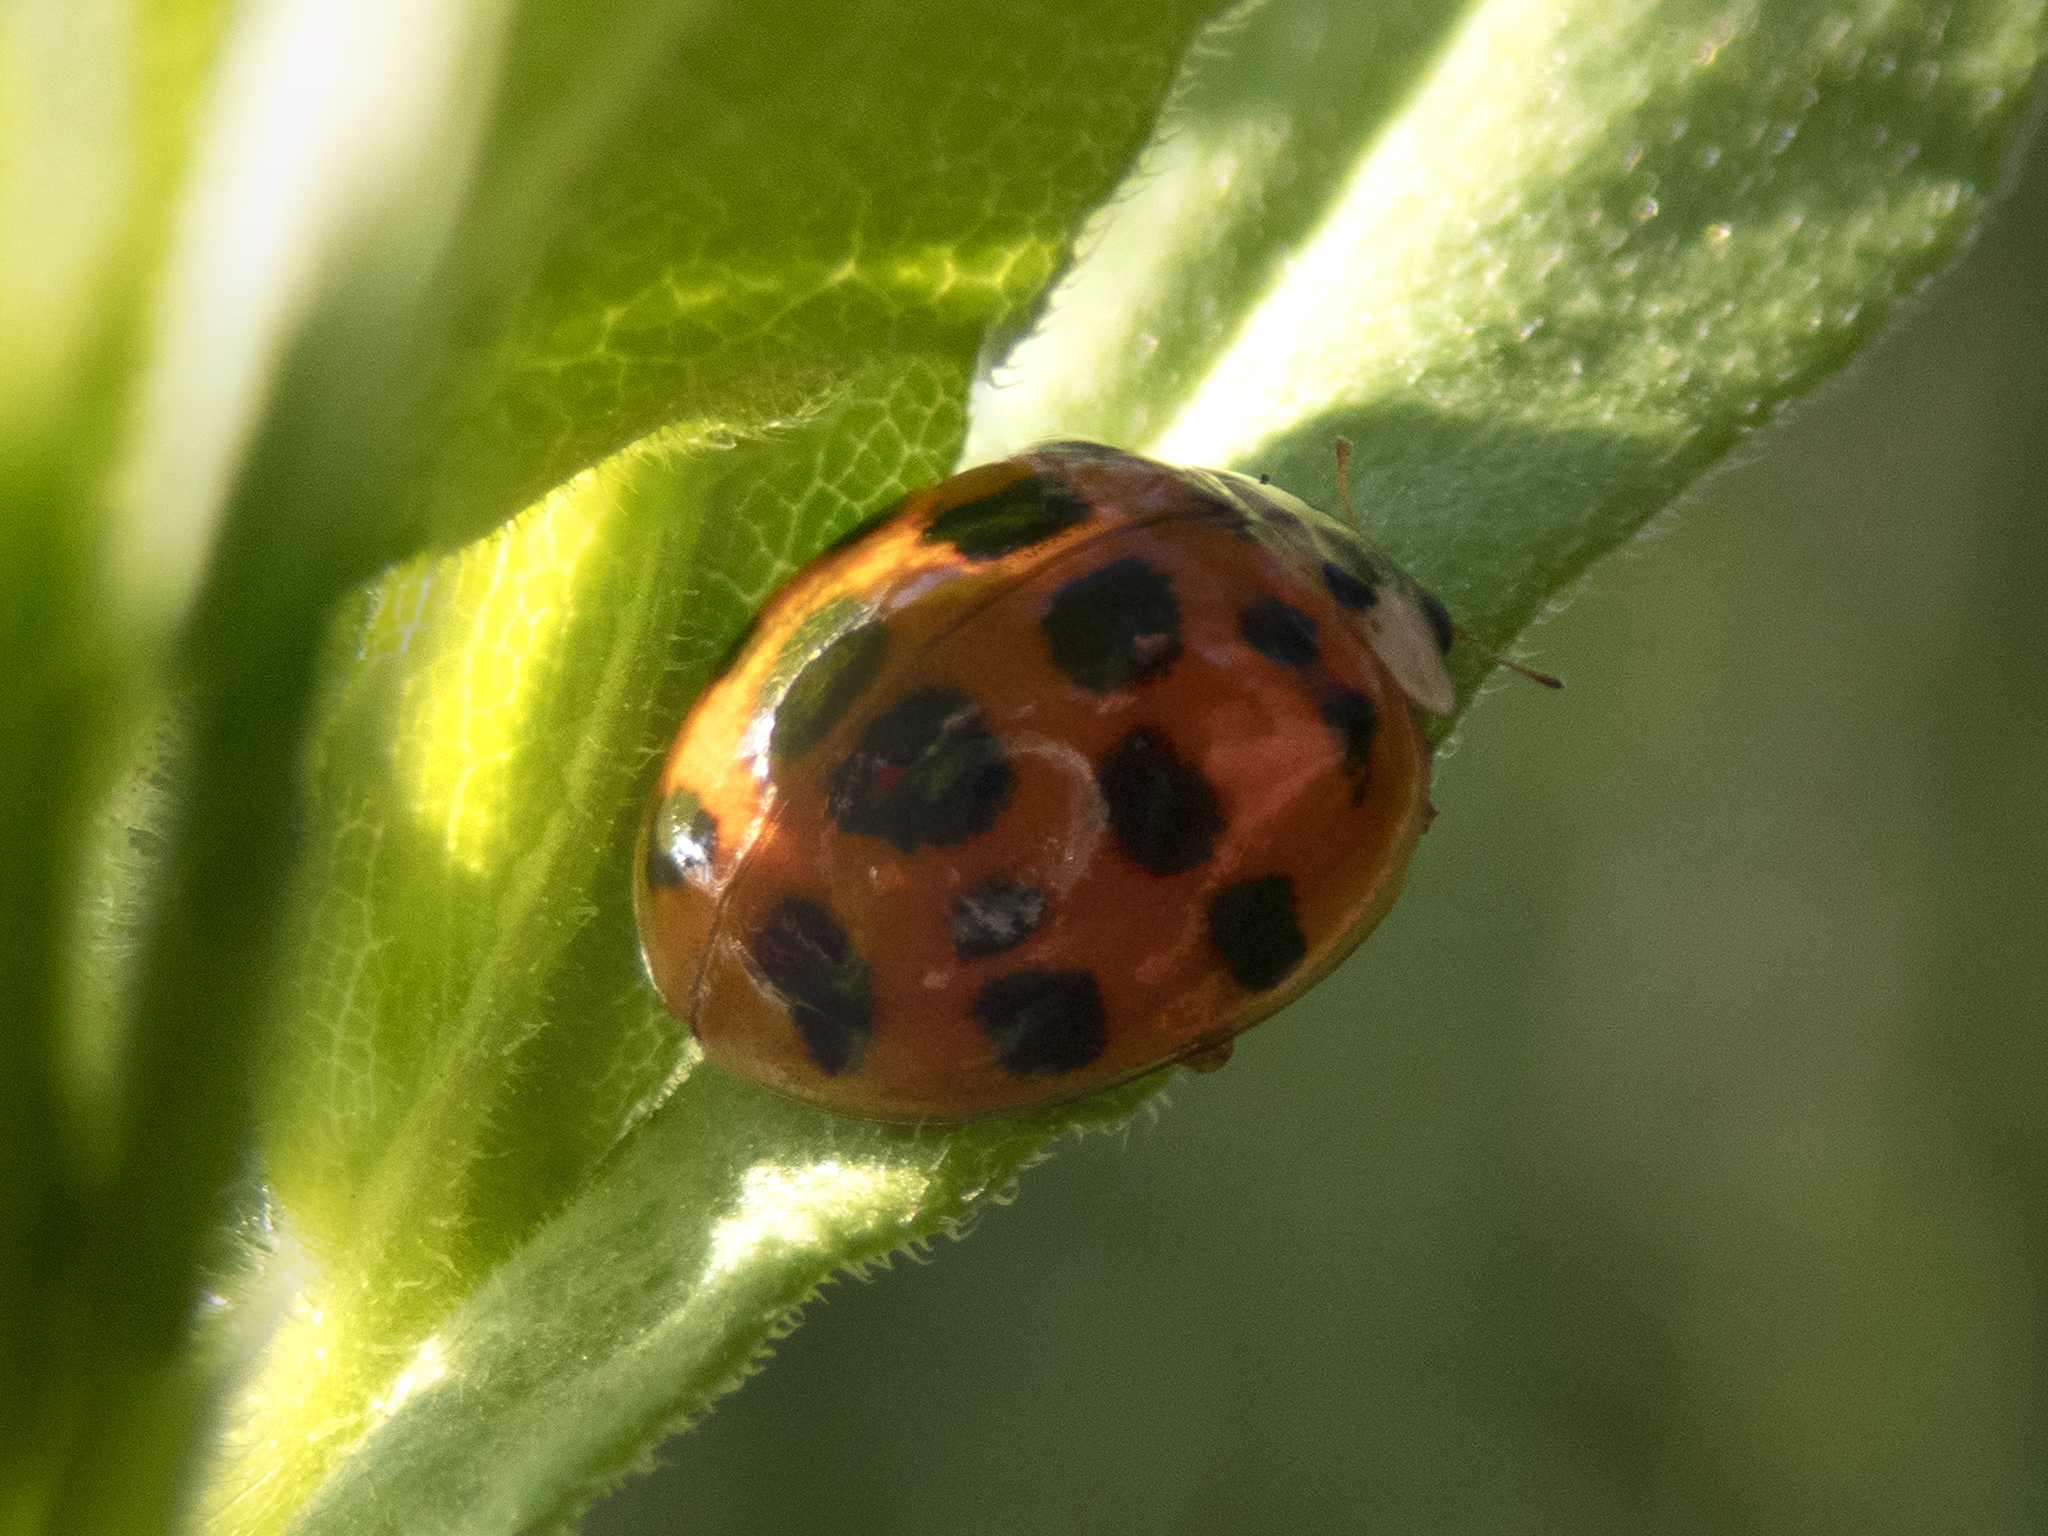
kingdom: Animalia
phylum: Arthropoda
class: Insecta
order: Coleoptera
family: Coccinellidae
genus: Harmonia
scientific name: Harmonia axyridis
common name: Harlequin ladybird
